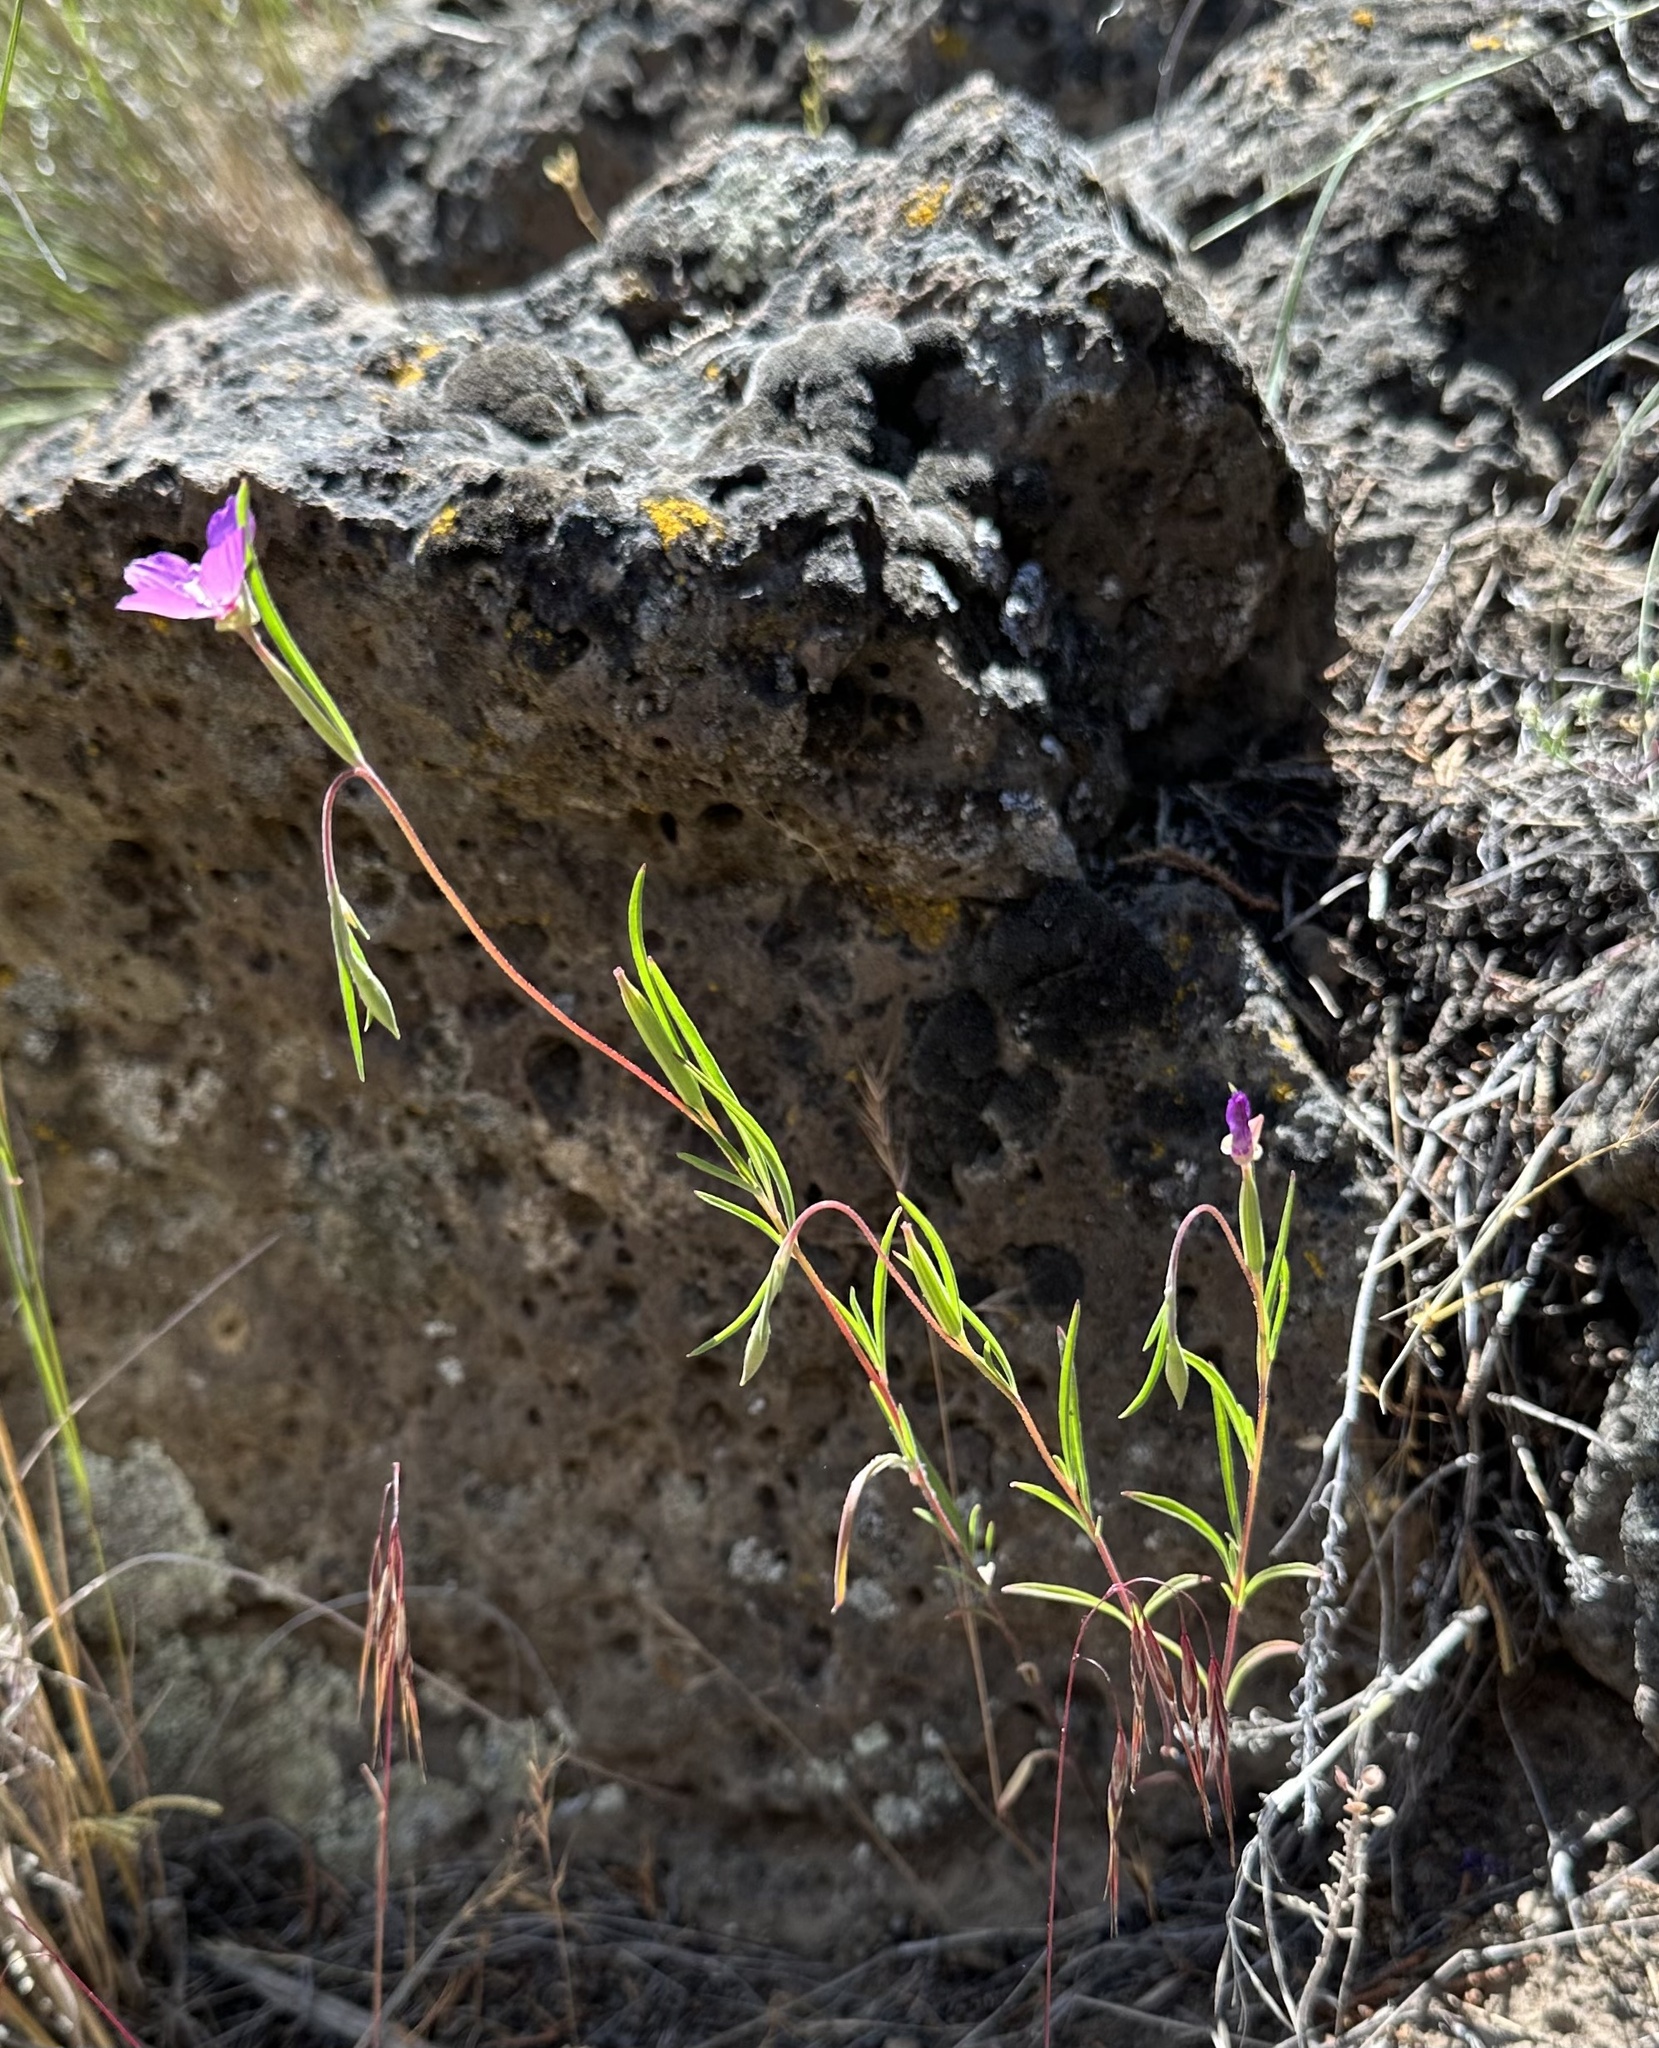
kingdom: Plantae
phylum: Tracheophyta
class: Magnoliopsida
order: Myrtales
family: Onagraceae
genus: Clarkia
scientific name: Clarkia gracilis
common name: Graceful clarkia
